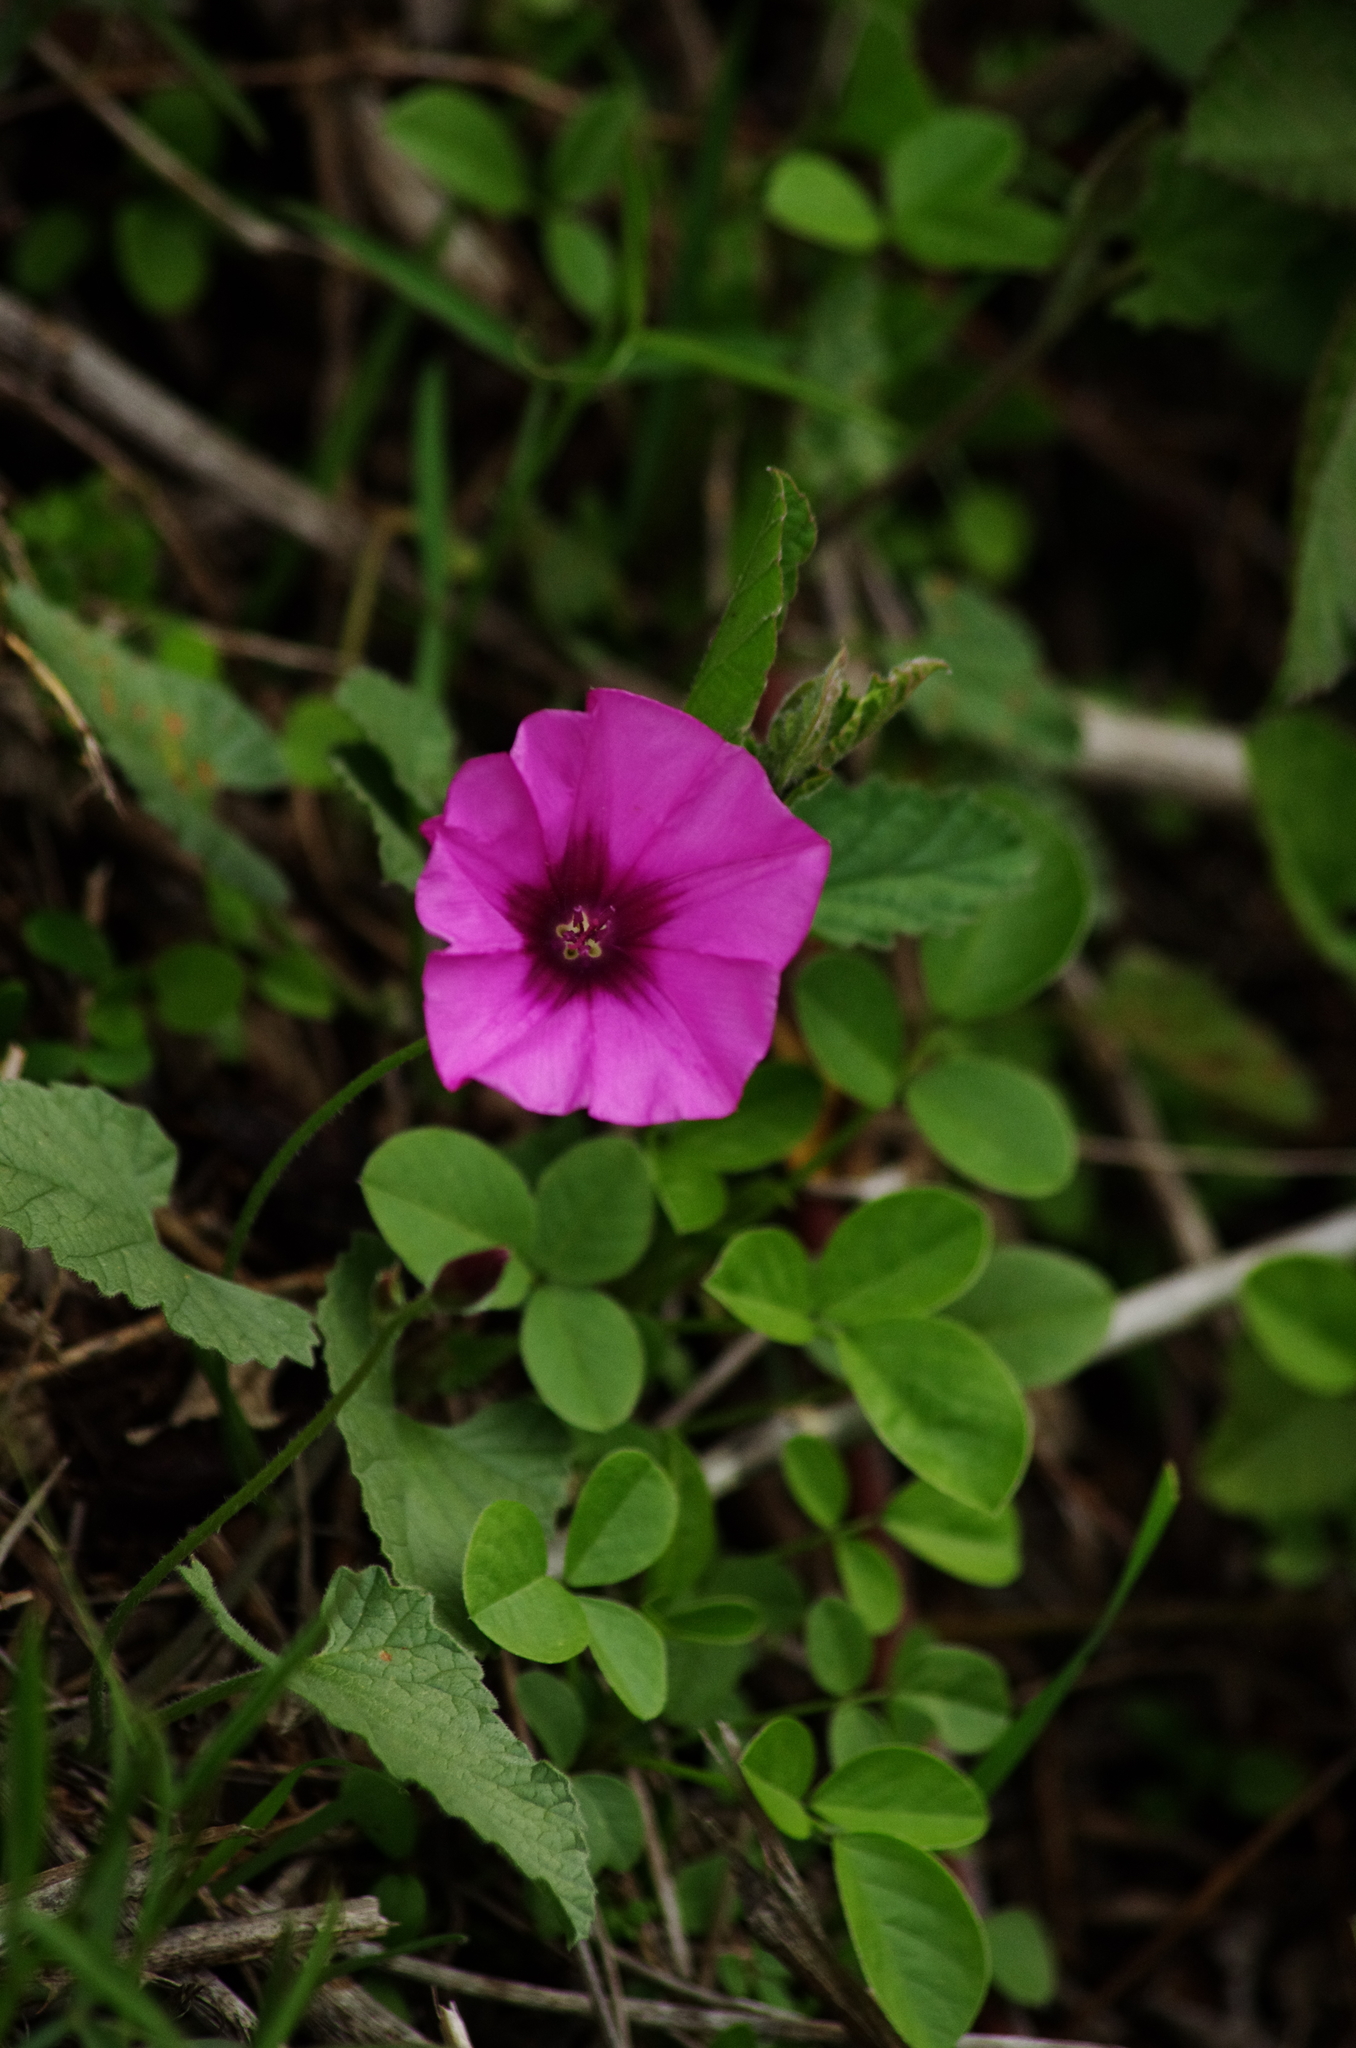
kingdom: Plantae
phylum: Tracheophyta
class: Magnoliopsida
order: Solanales
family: Convolvulaceae
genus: Convolvulus
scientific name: Convolvulus althaeoides
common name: Mallow bindweed
